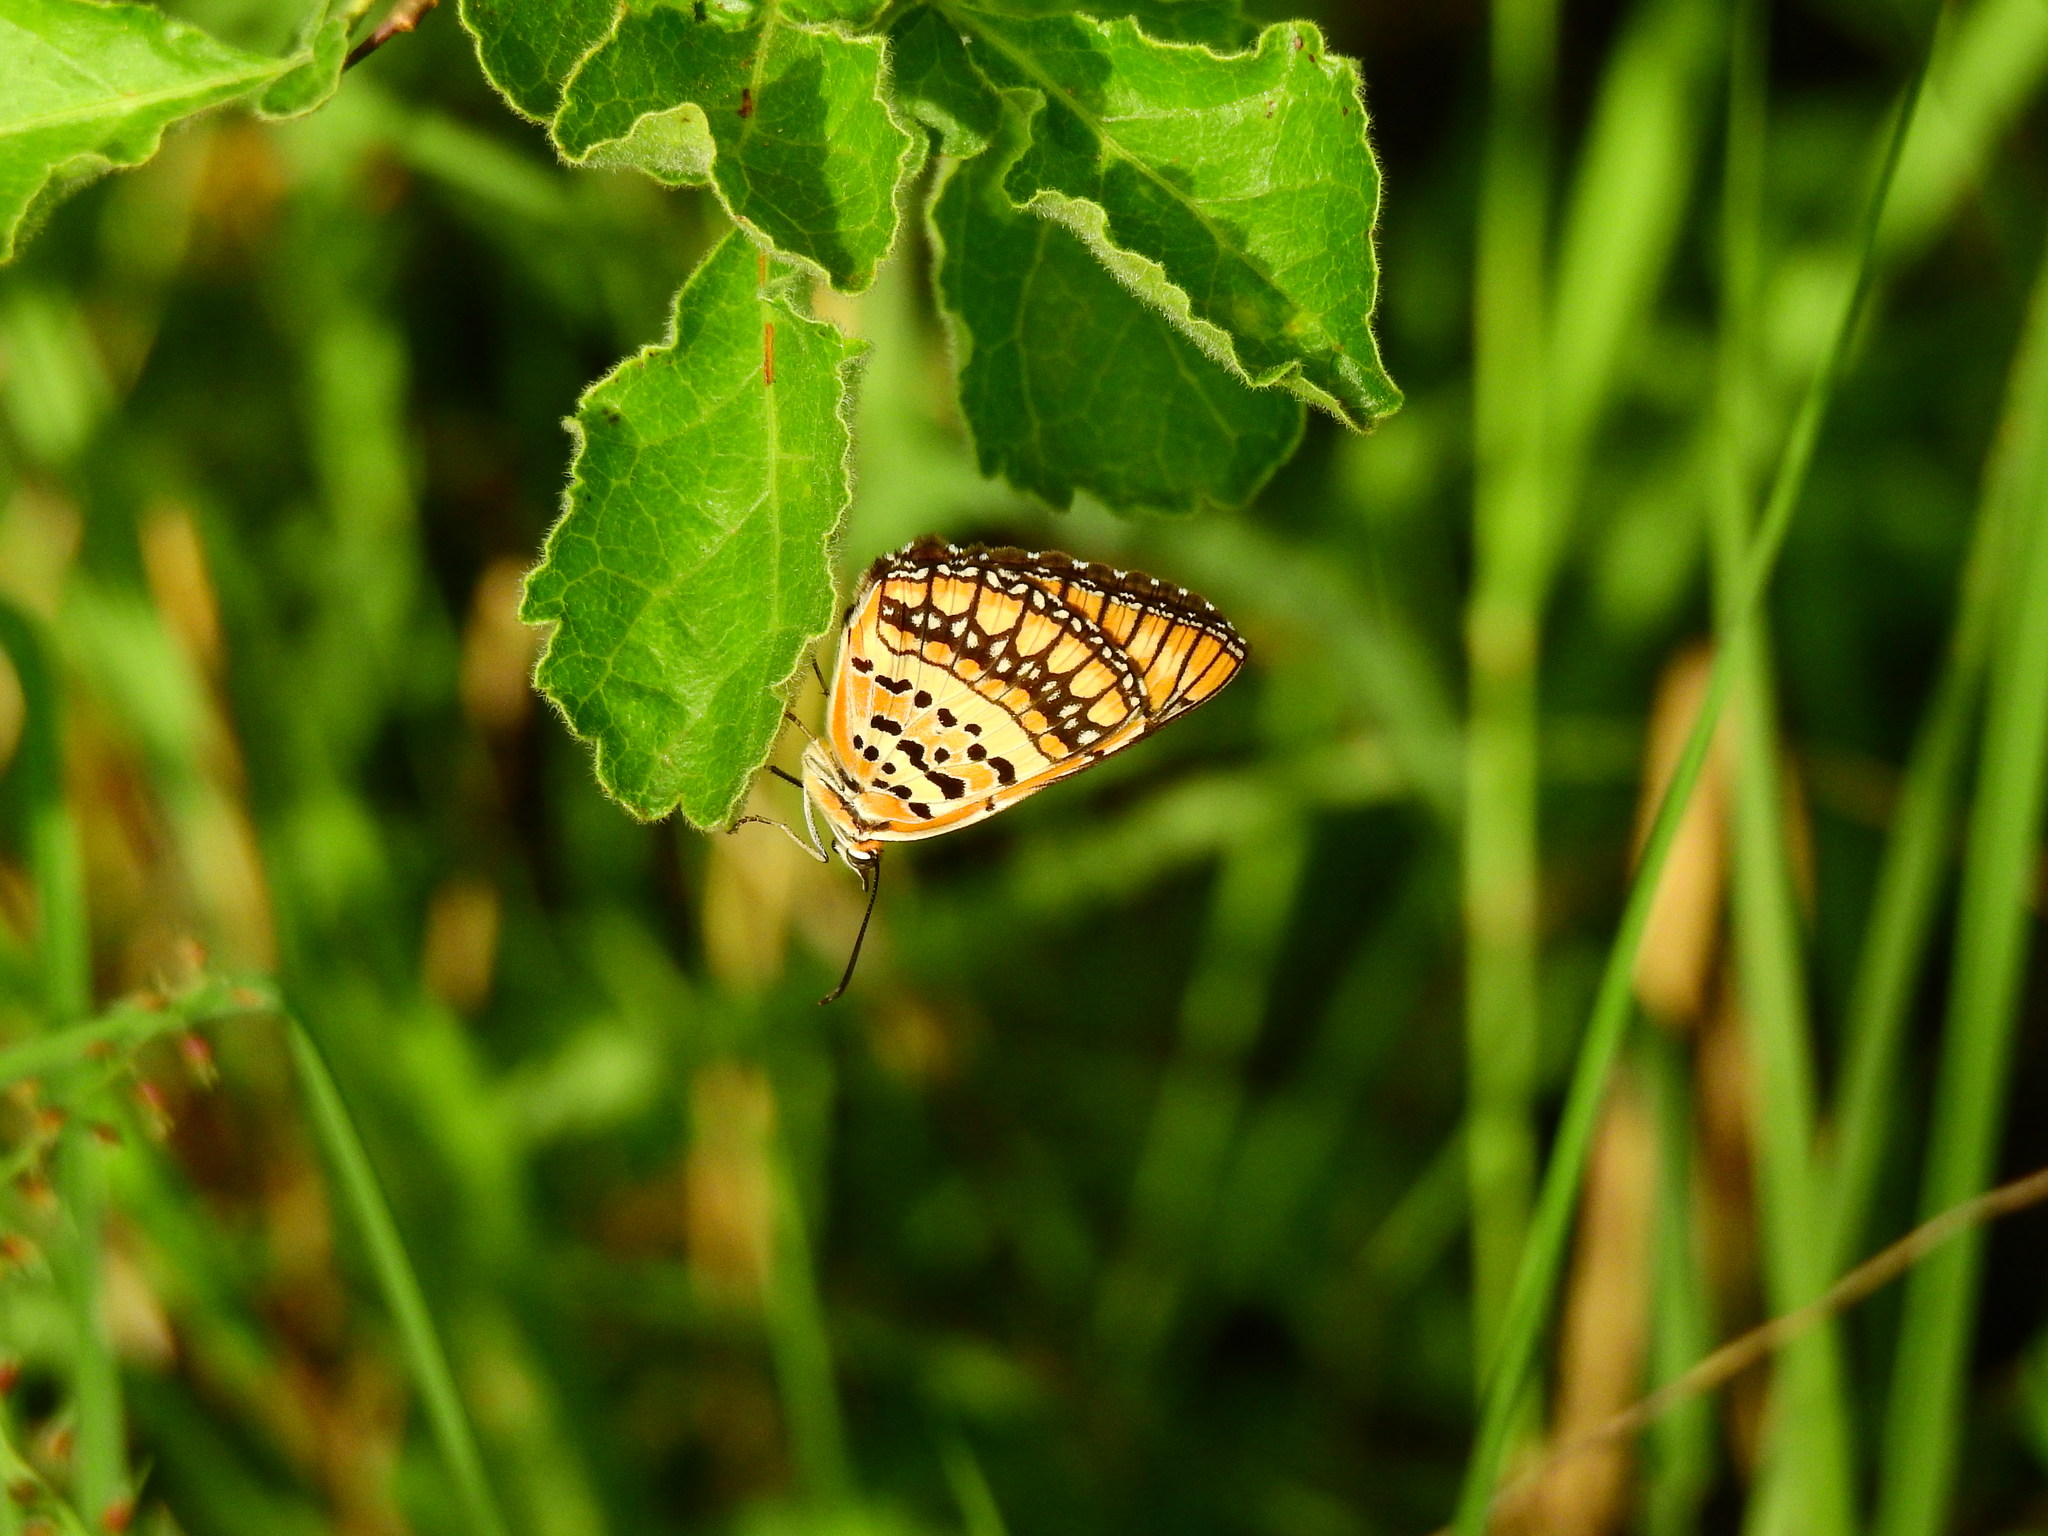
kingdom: Animalia
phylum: Arthropoda
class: Insecta
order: Lepidoptera
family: Nymphalidae
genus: Byblia
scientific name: Byblia ilithyia
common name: Spotted joker
